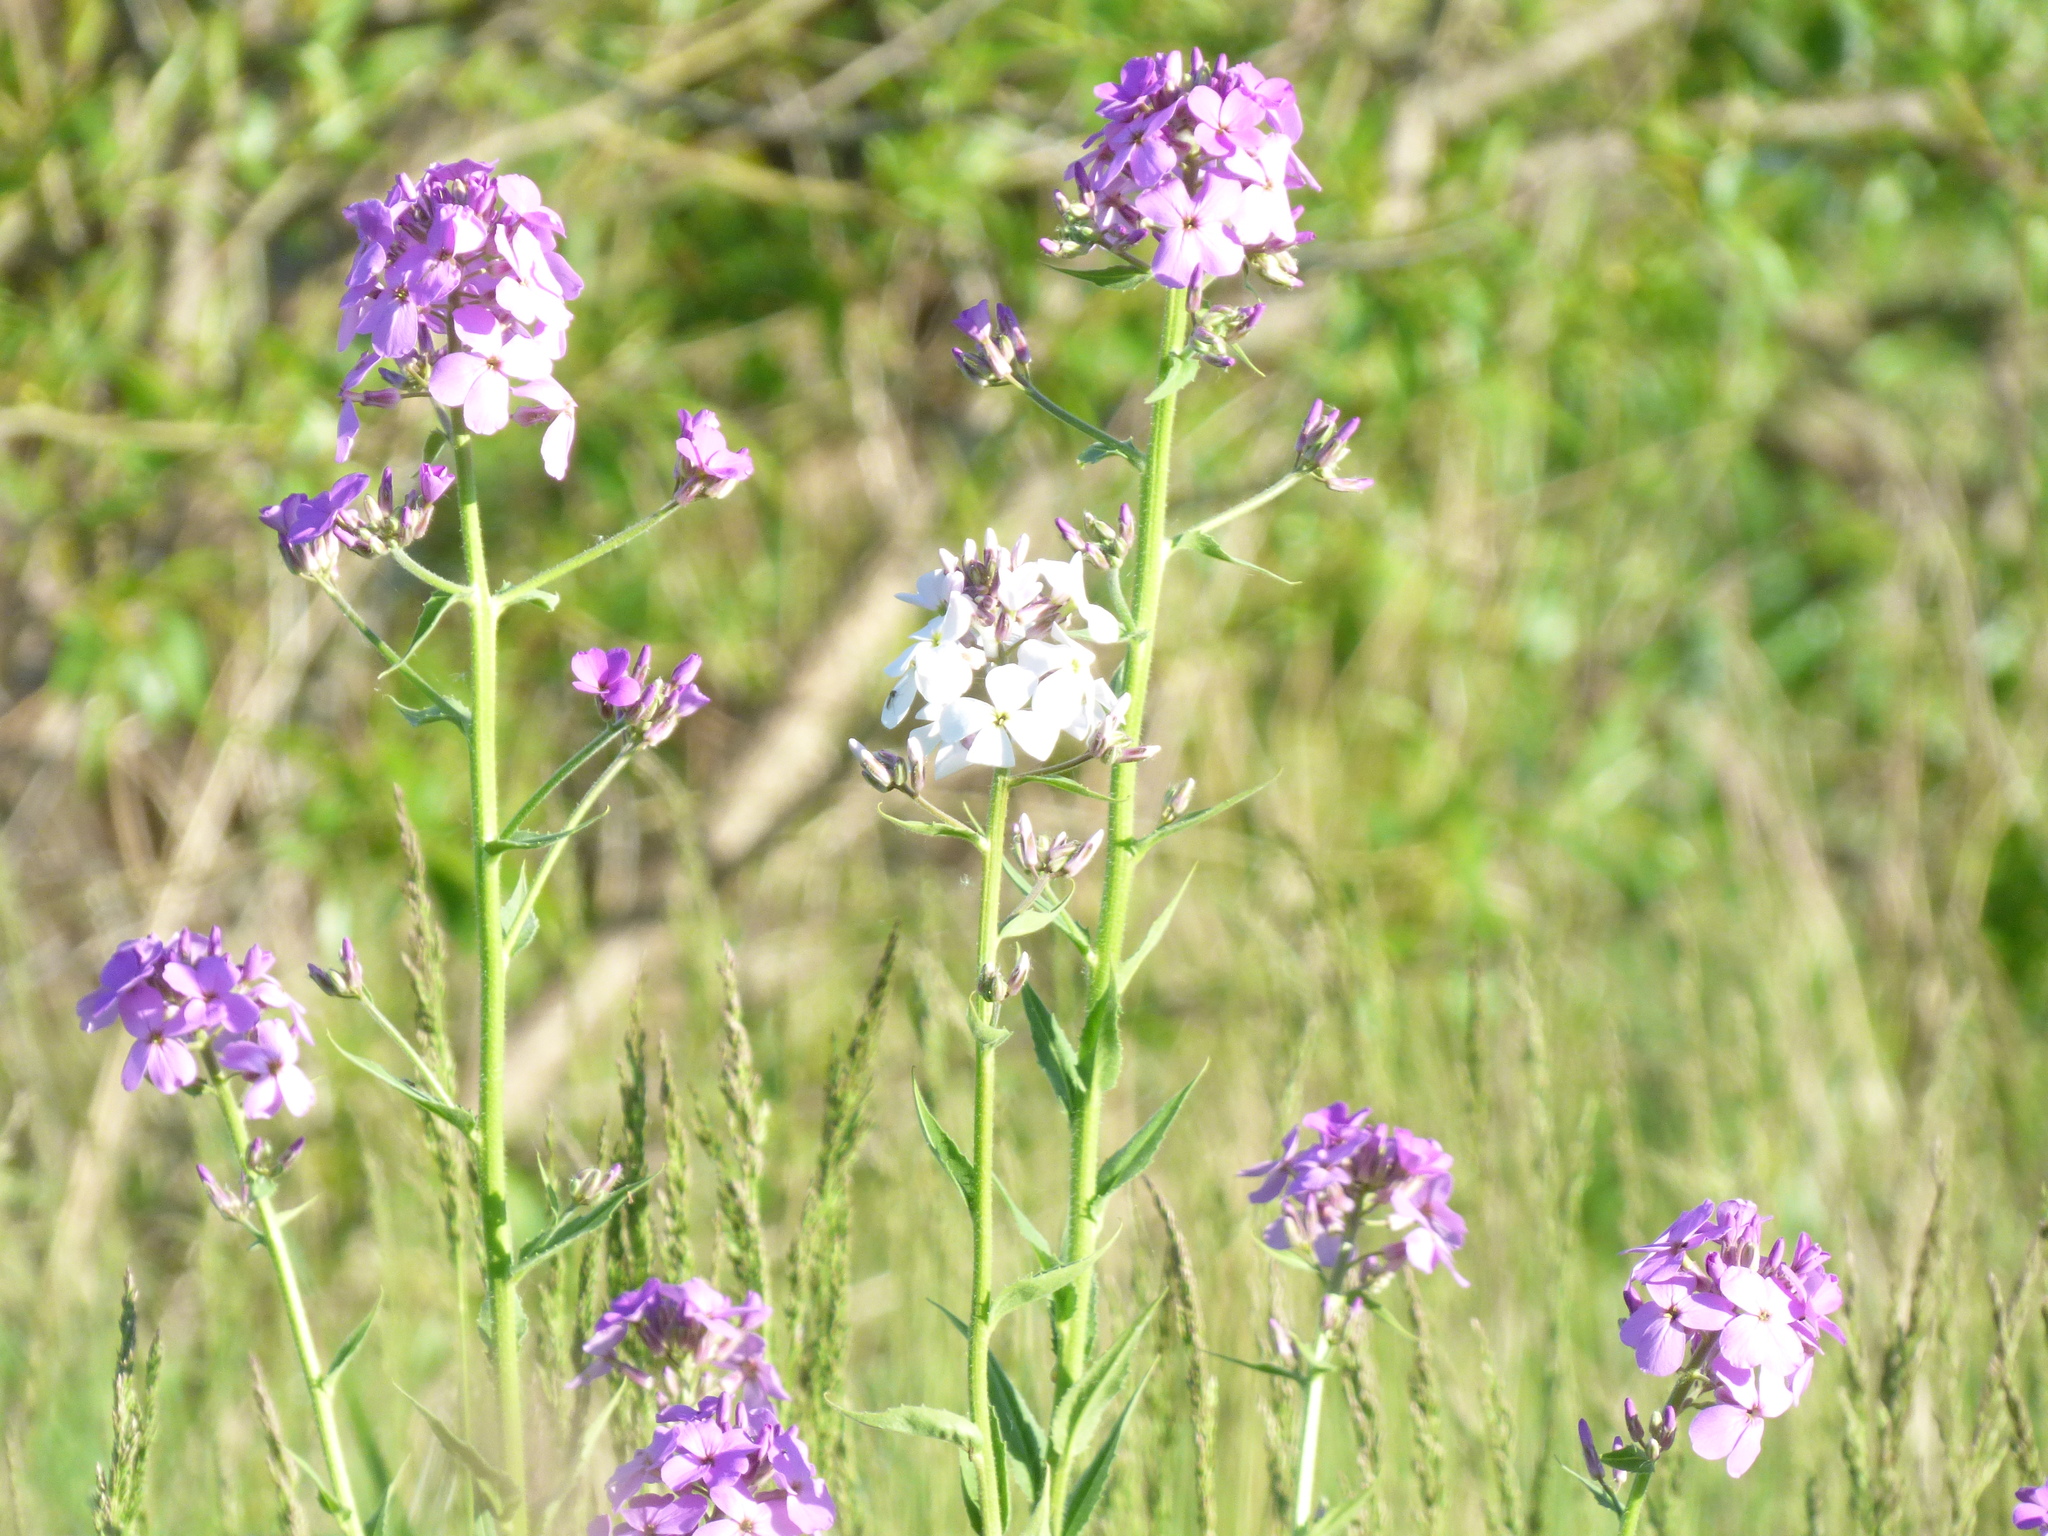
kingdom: Plantae
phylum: Tracheophyta
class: Magnoliopsida
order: Brassicales
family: Brassicaceae
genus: Hesperis
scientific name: Hesperis matronalis
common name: Dame's-violet
